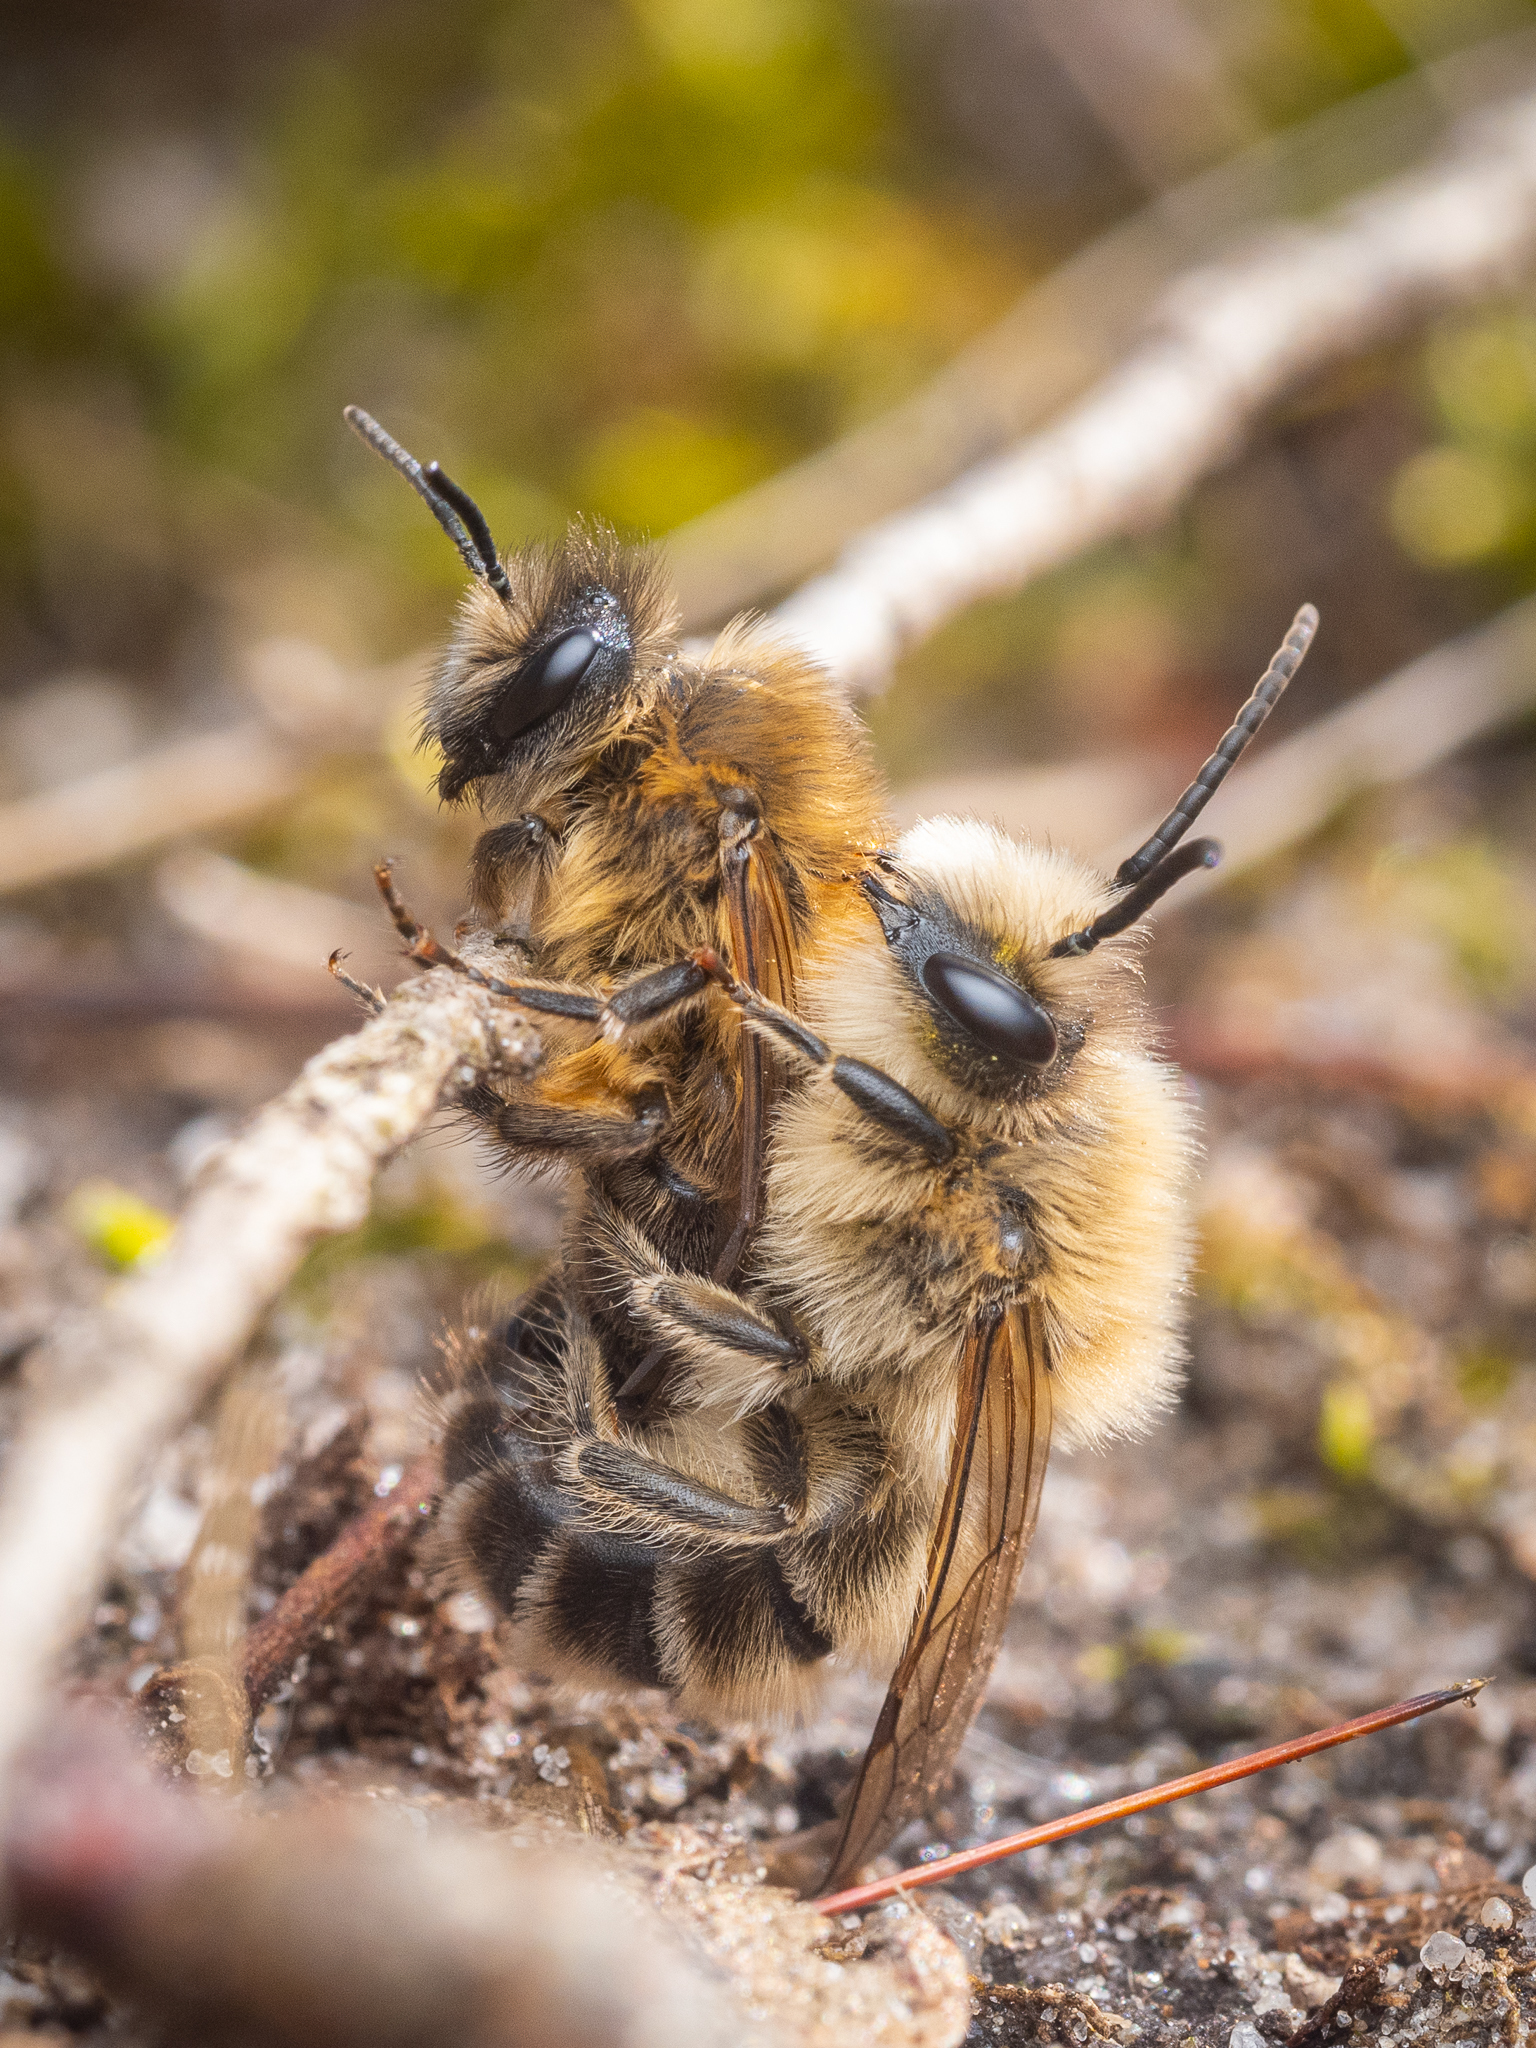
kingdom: Animalia
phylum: Arthropoda
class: Insecta
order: Hymenoptera
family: Colletidae
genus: Colletes
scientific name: Colletes cunicularius
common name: Early colletes
